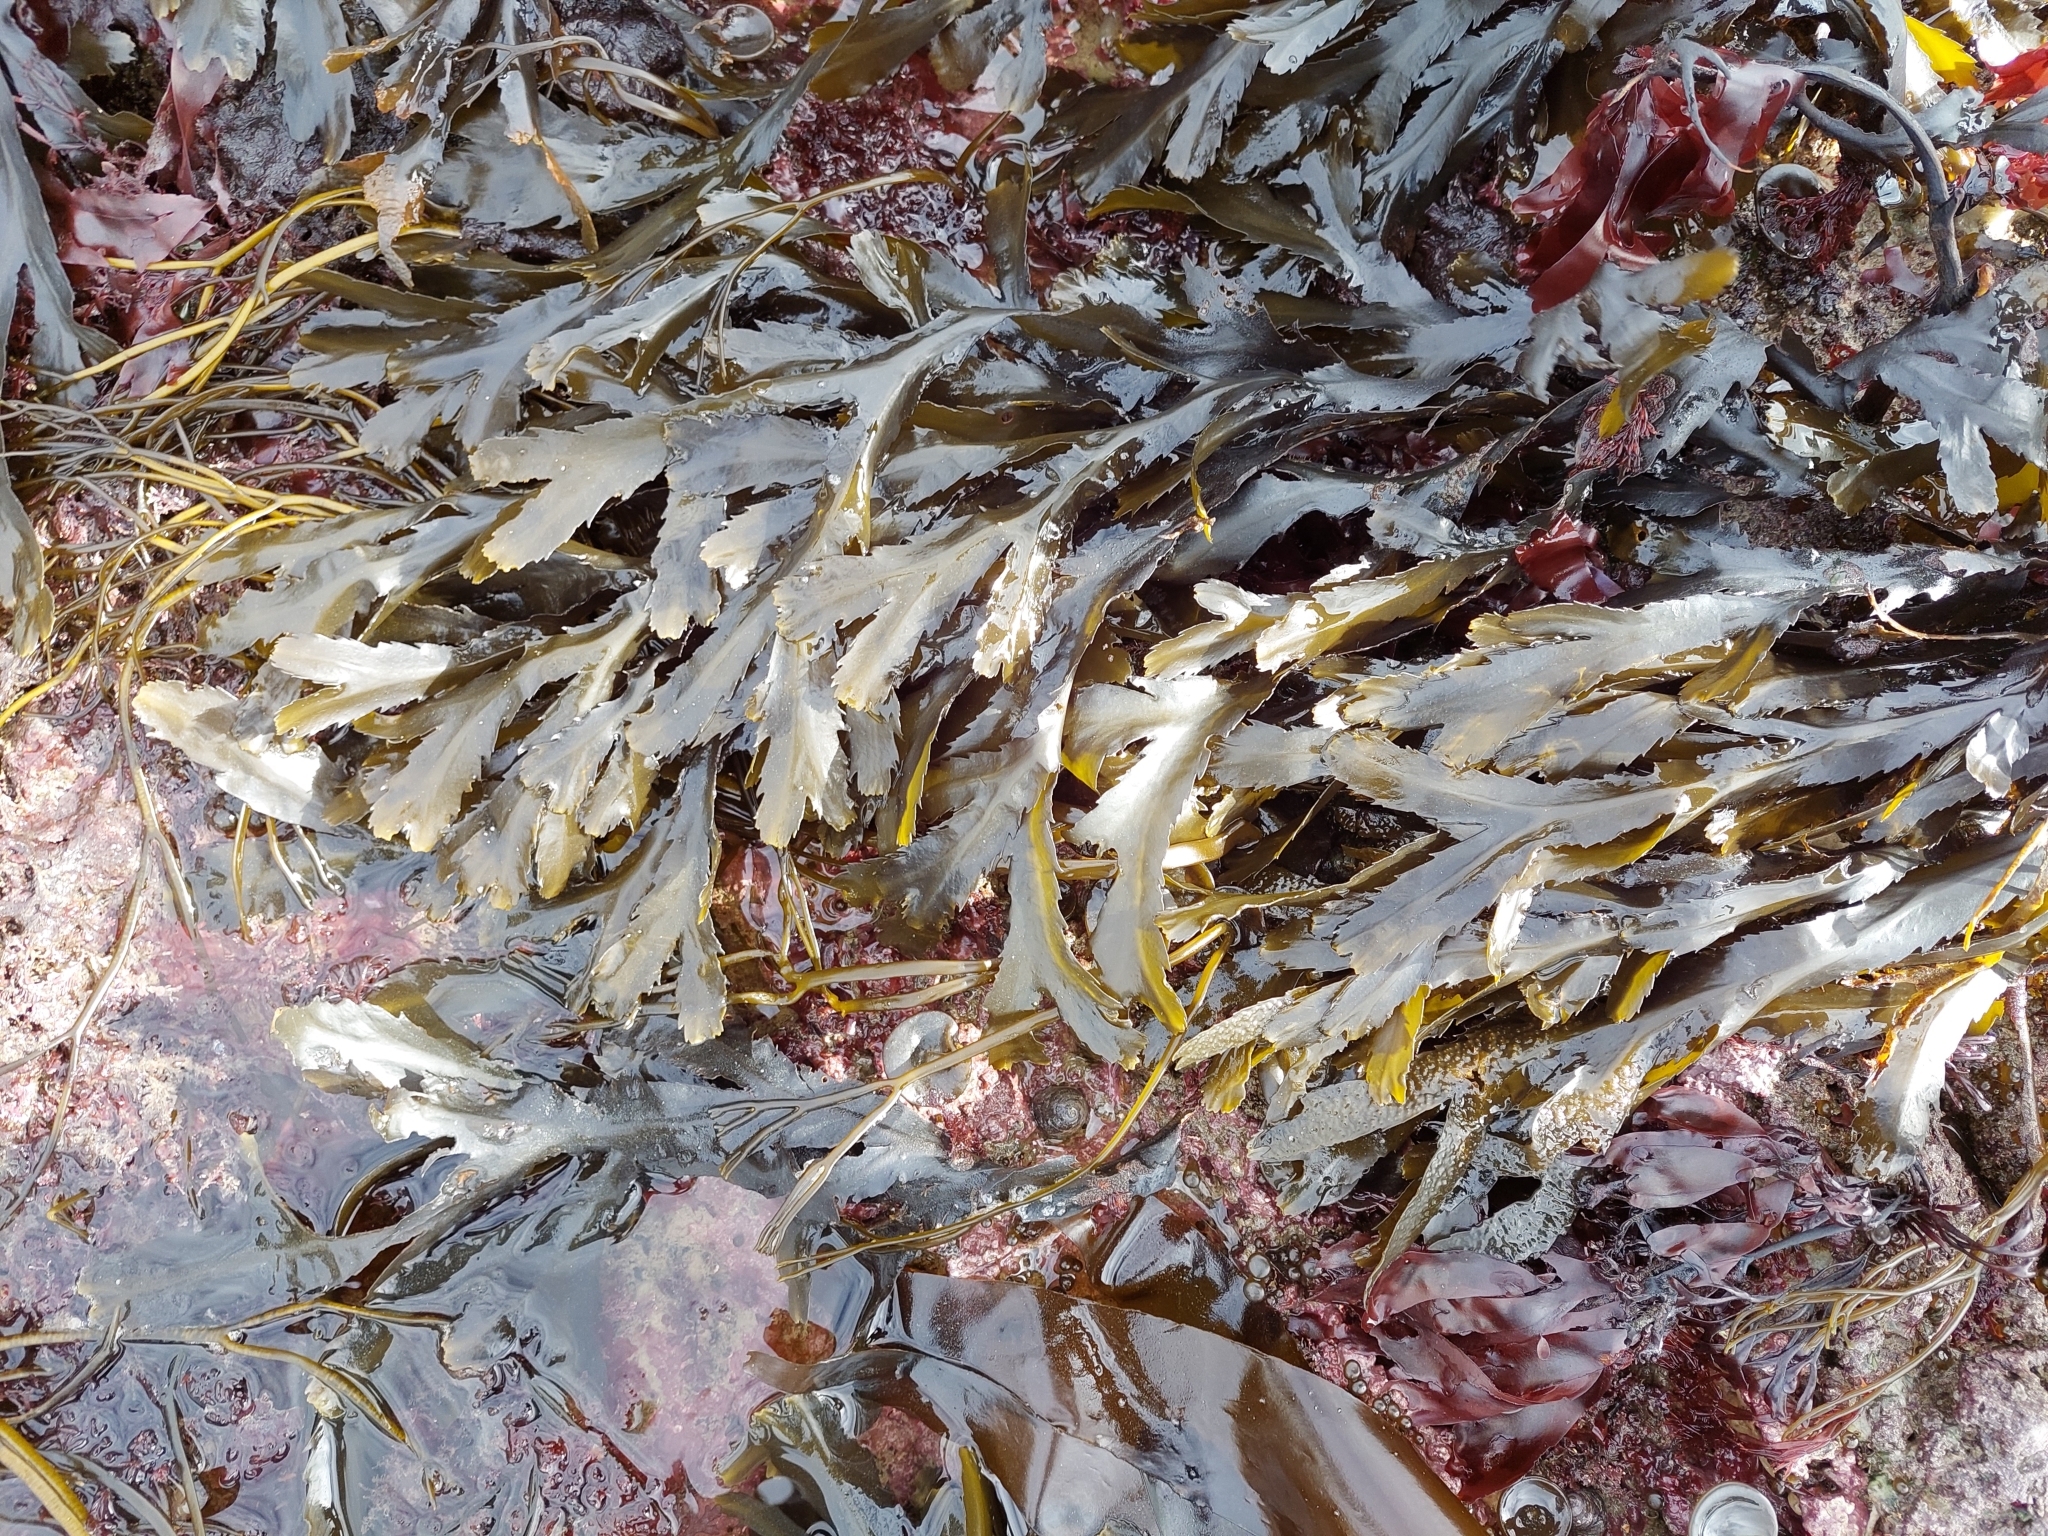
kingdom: Chromista
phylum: Ochrophyta
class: Phaeophyceae
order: Fucales
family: Fucaceae
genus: Fucus
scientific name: Fucus serratus
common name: Toothed wrack
